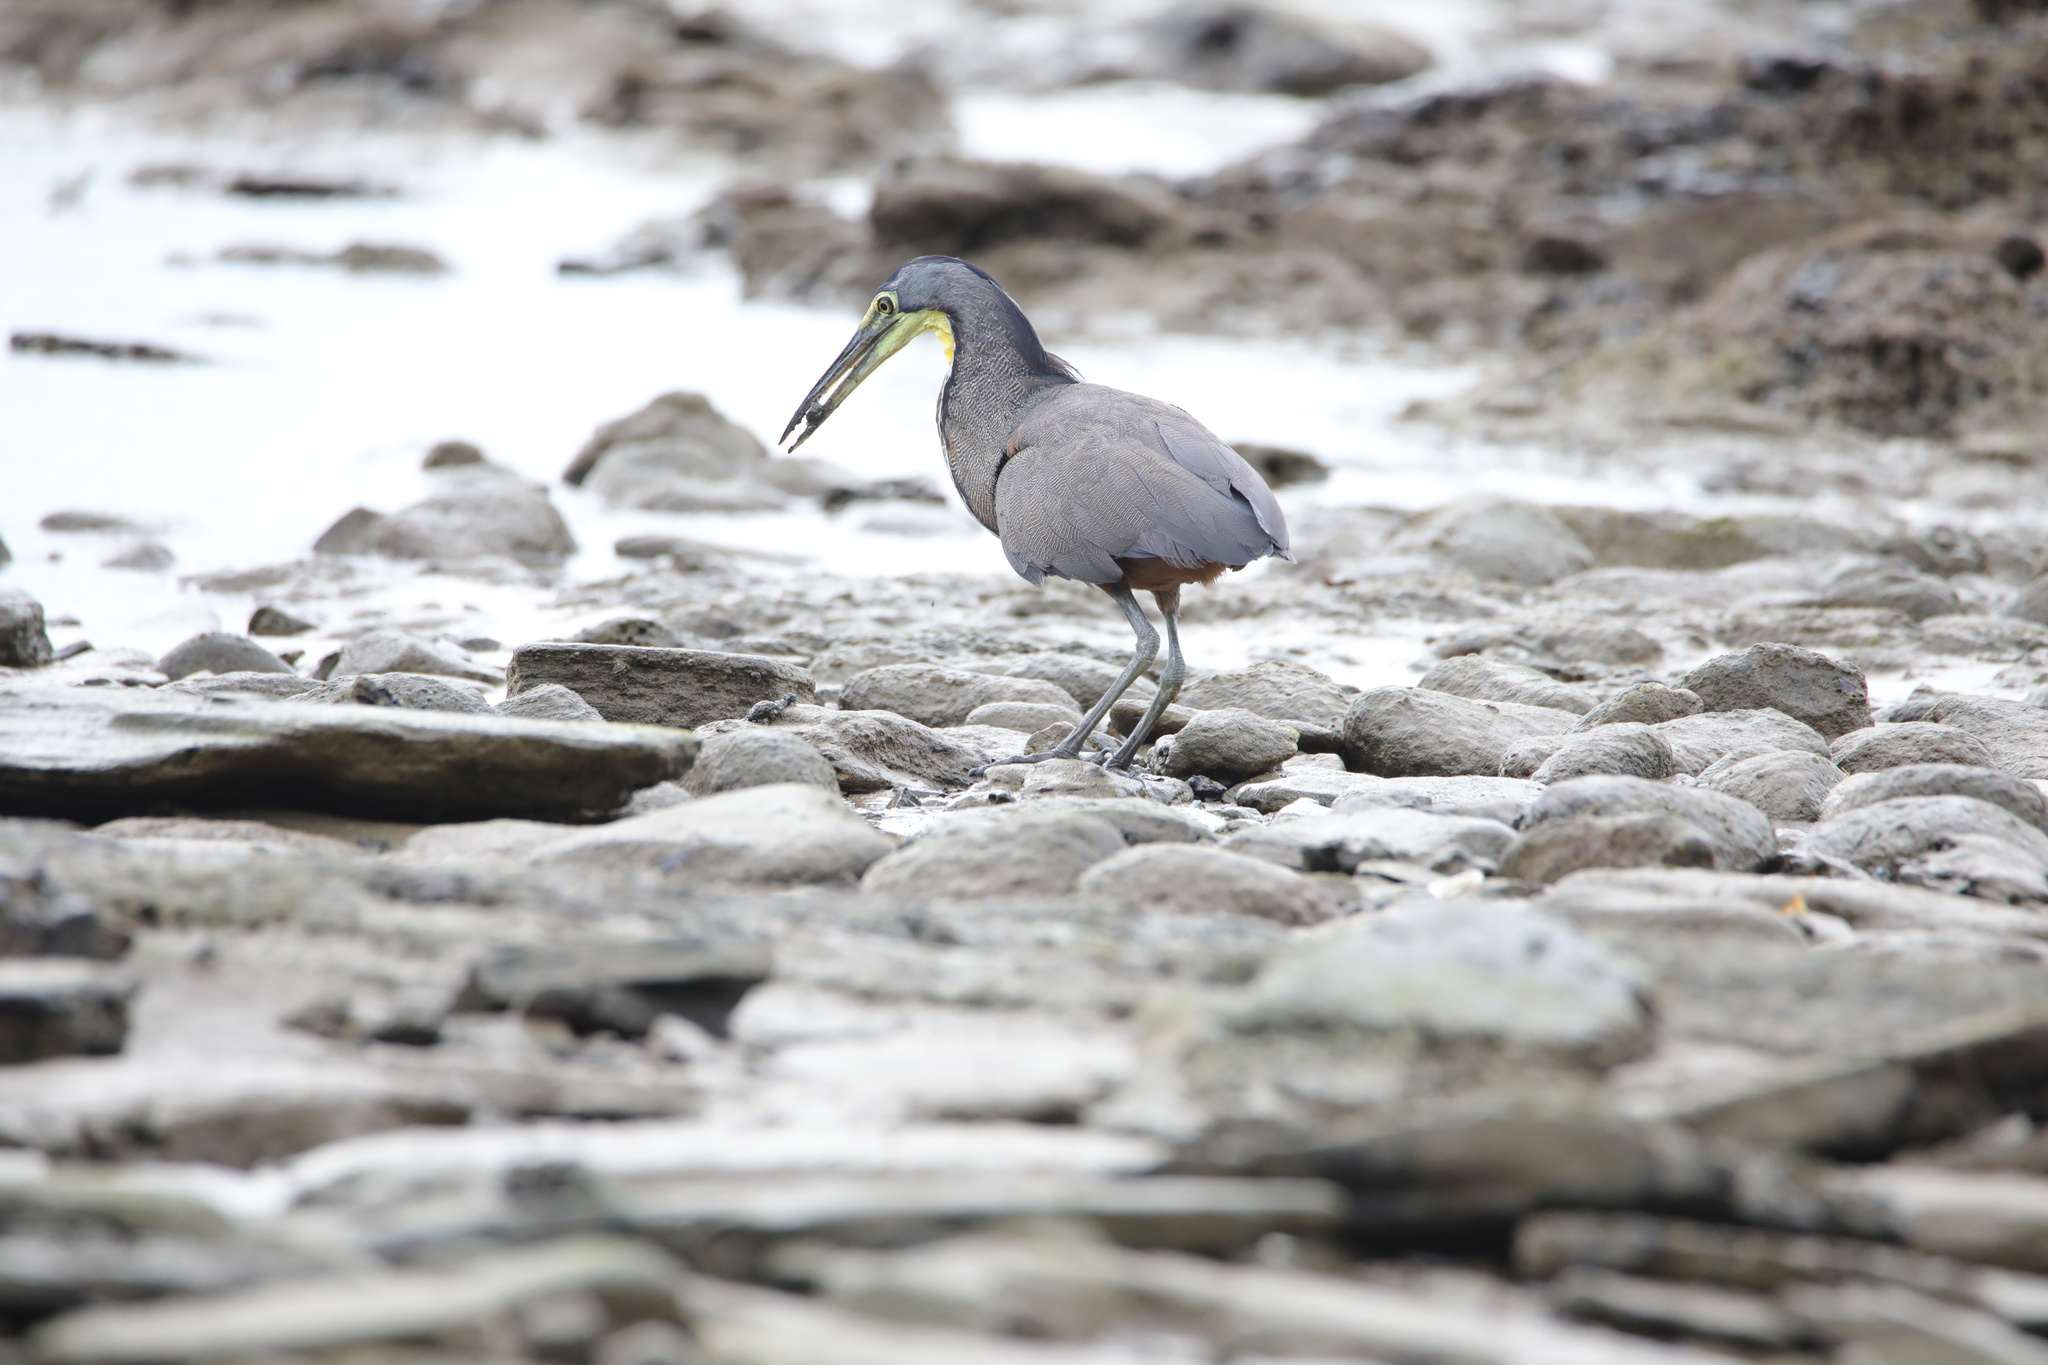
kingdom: Animalia
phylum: Chordata
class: Aves
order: Pelecaniformes
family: Ardeidae
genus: Tigrisoma
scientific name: Tigrisoma mexicanum
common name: Bare-throated tiger-heron
